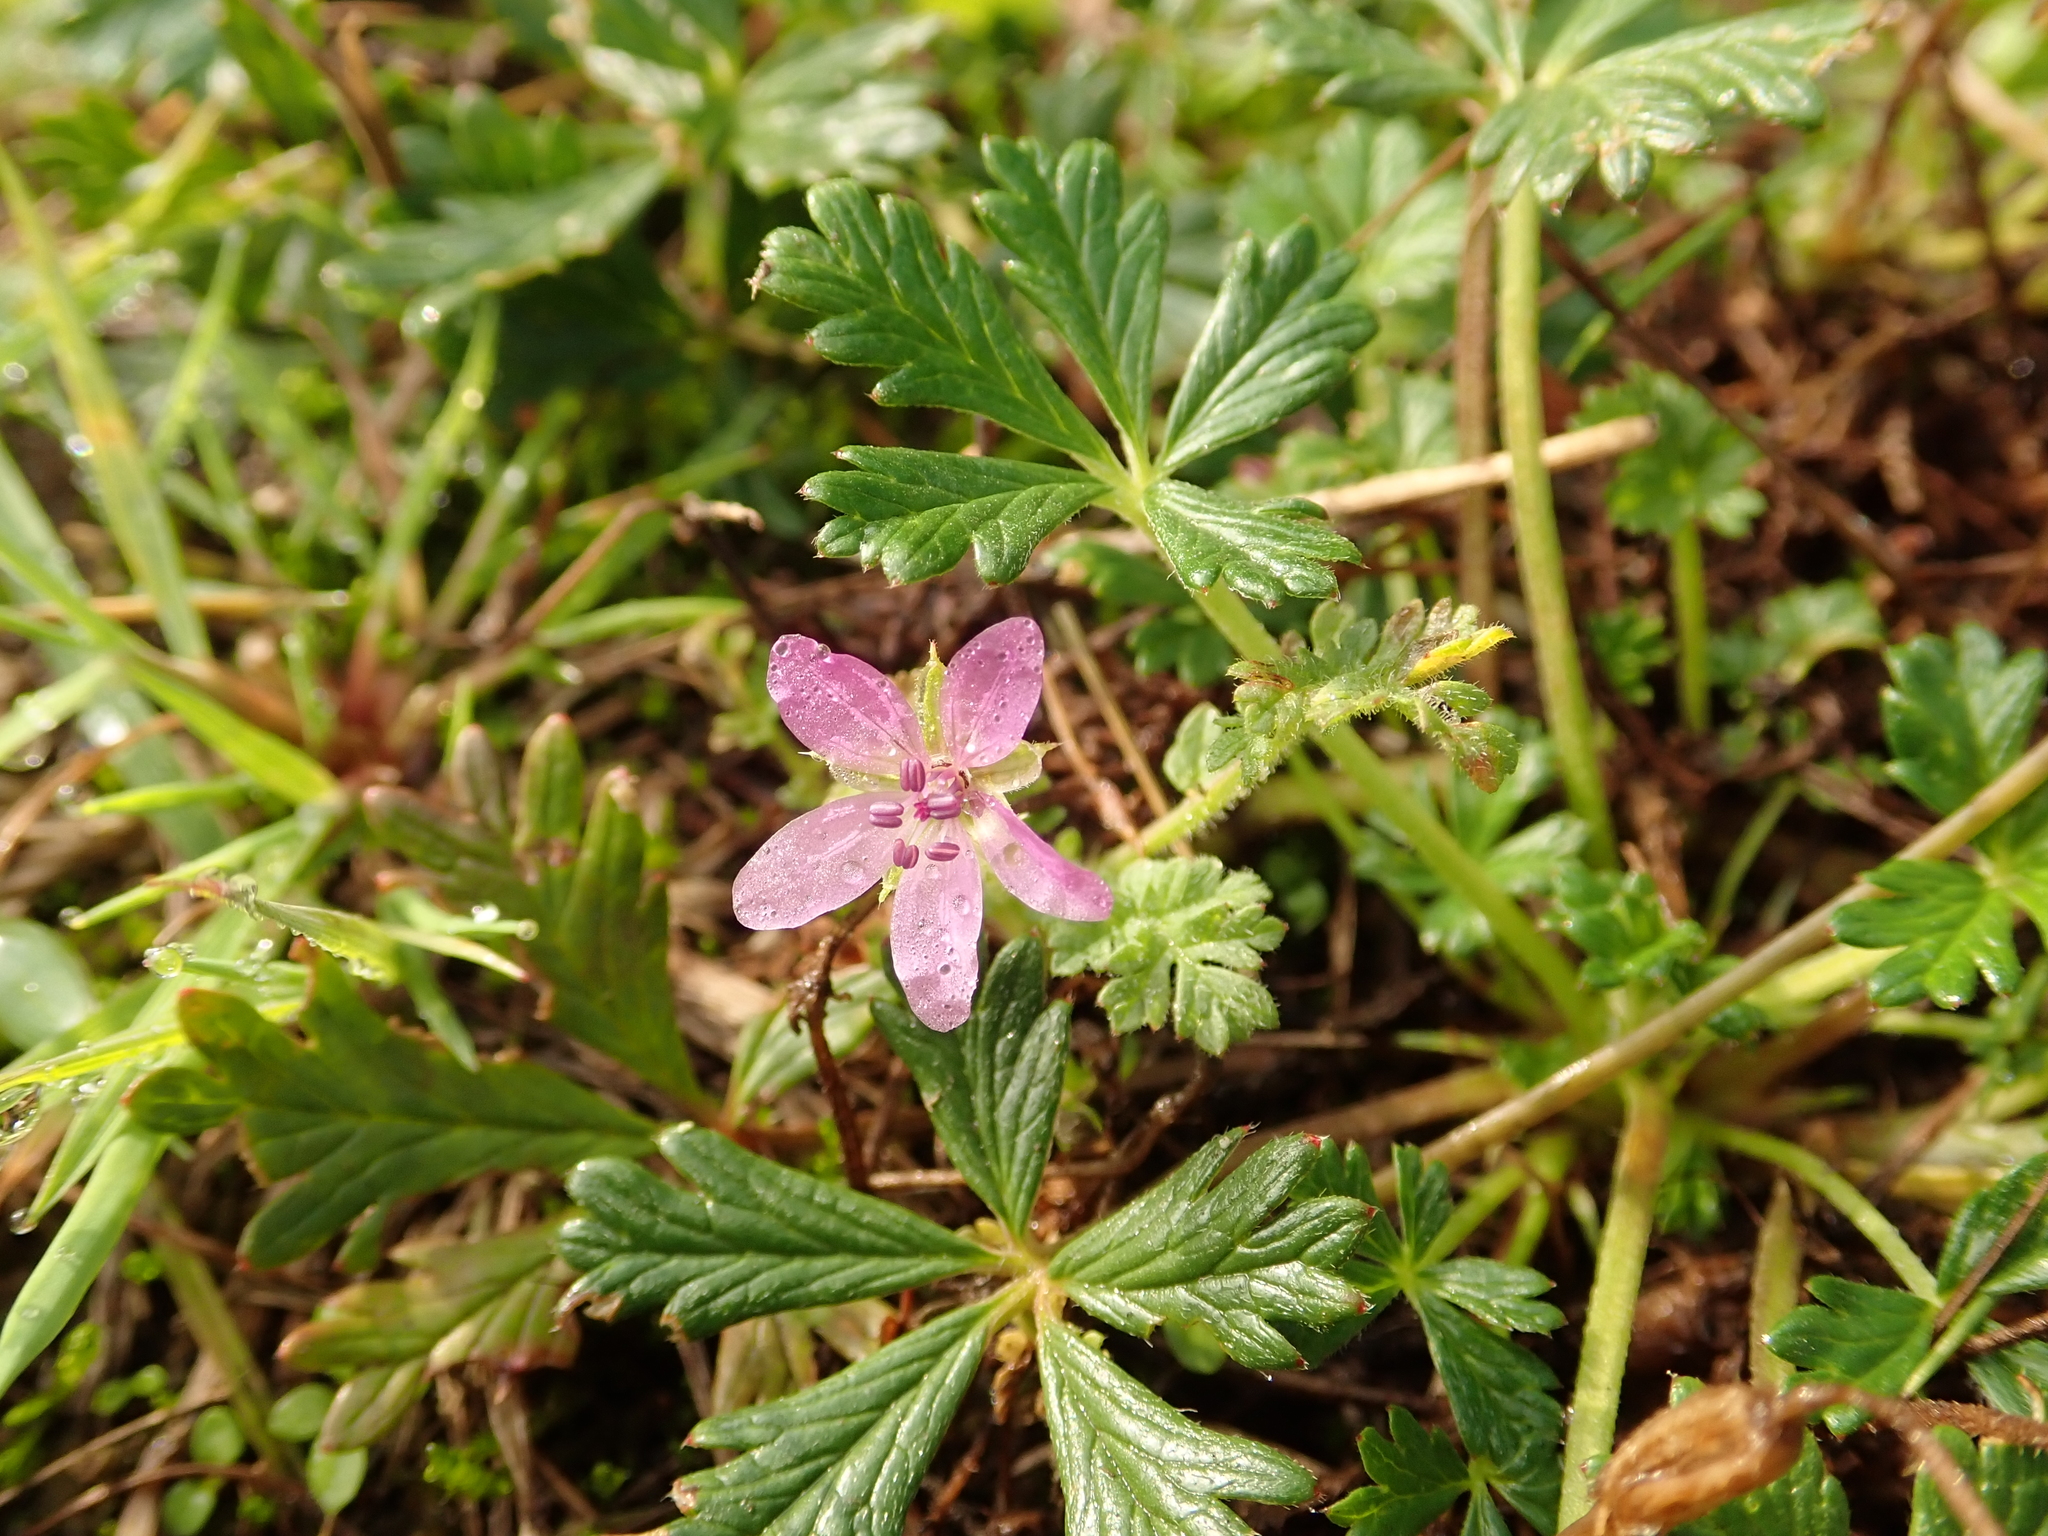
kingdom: Plantae
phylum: Tracheophyta
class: Magnoliopsida
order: Geraniales
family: Geraniaceae
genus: Erodium
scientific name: Erodium cicutarium
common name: Common stork's-bill
